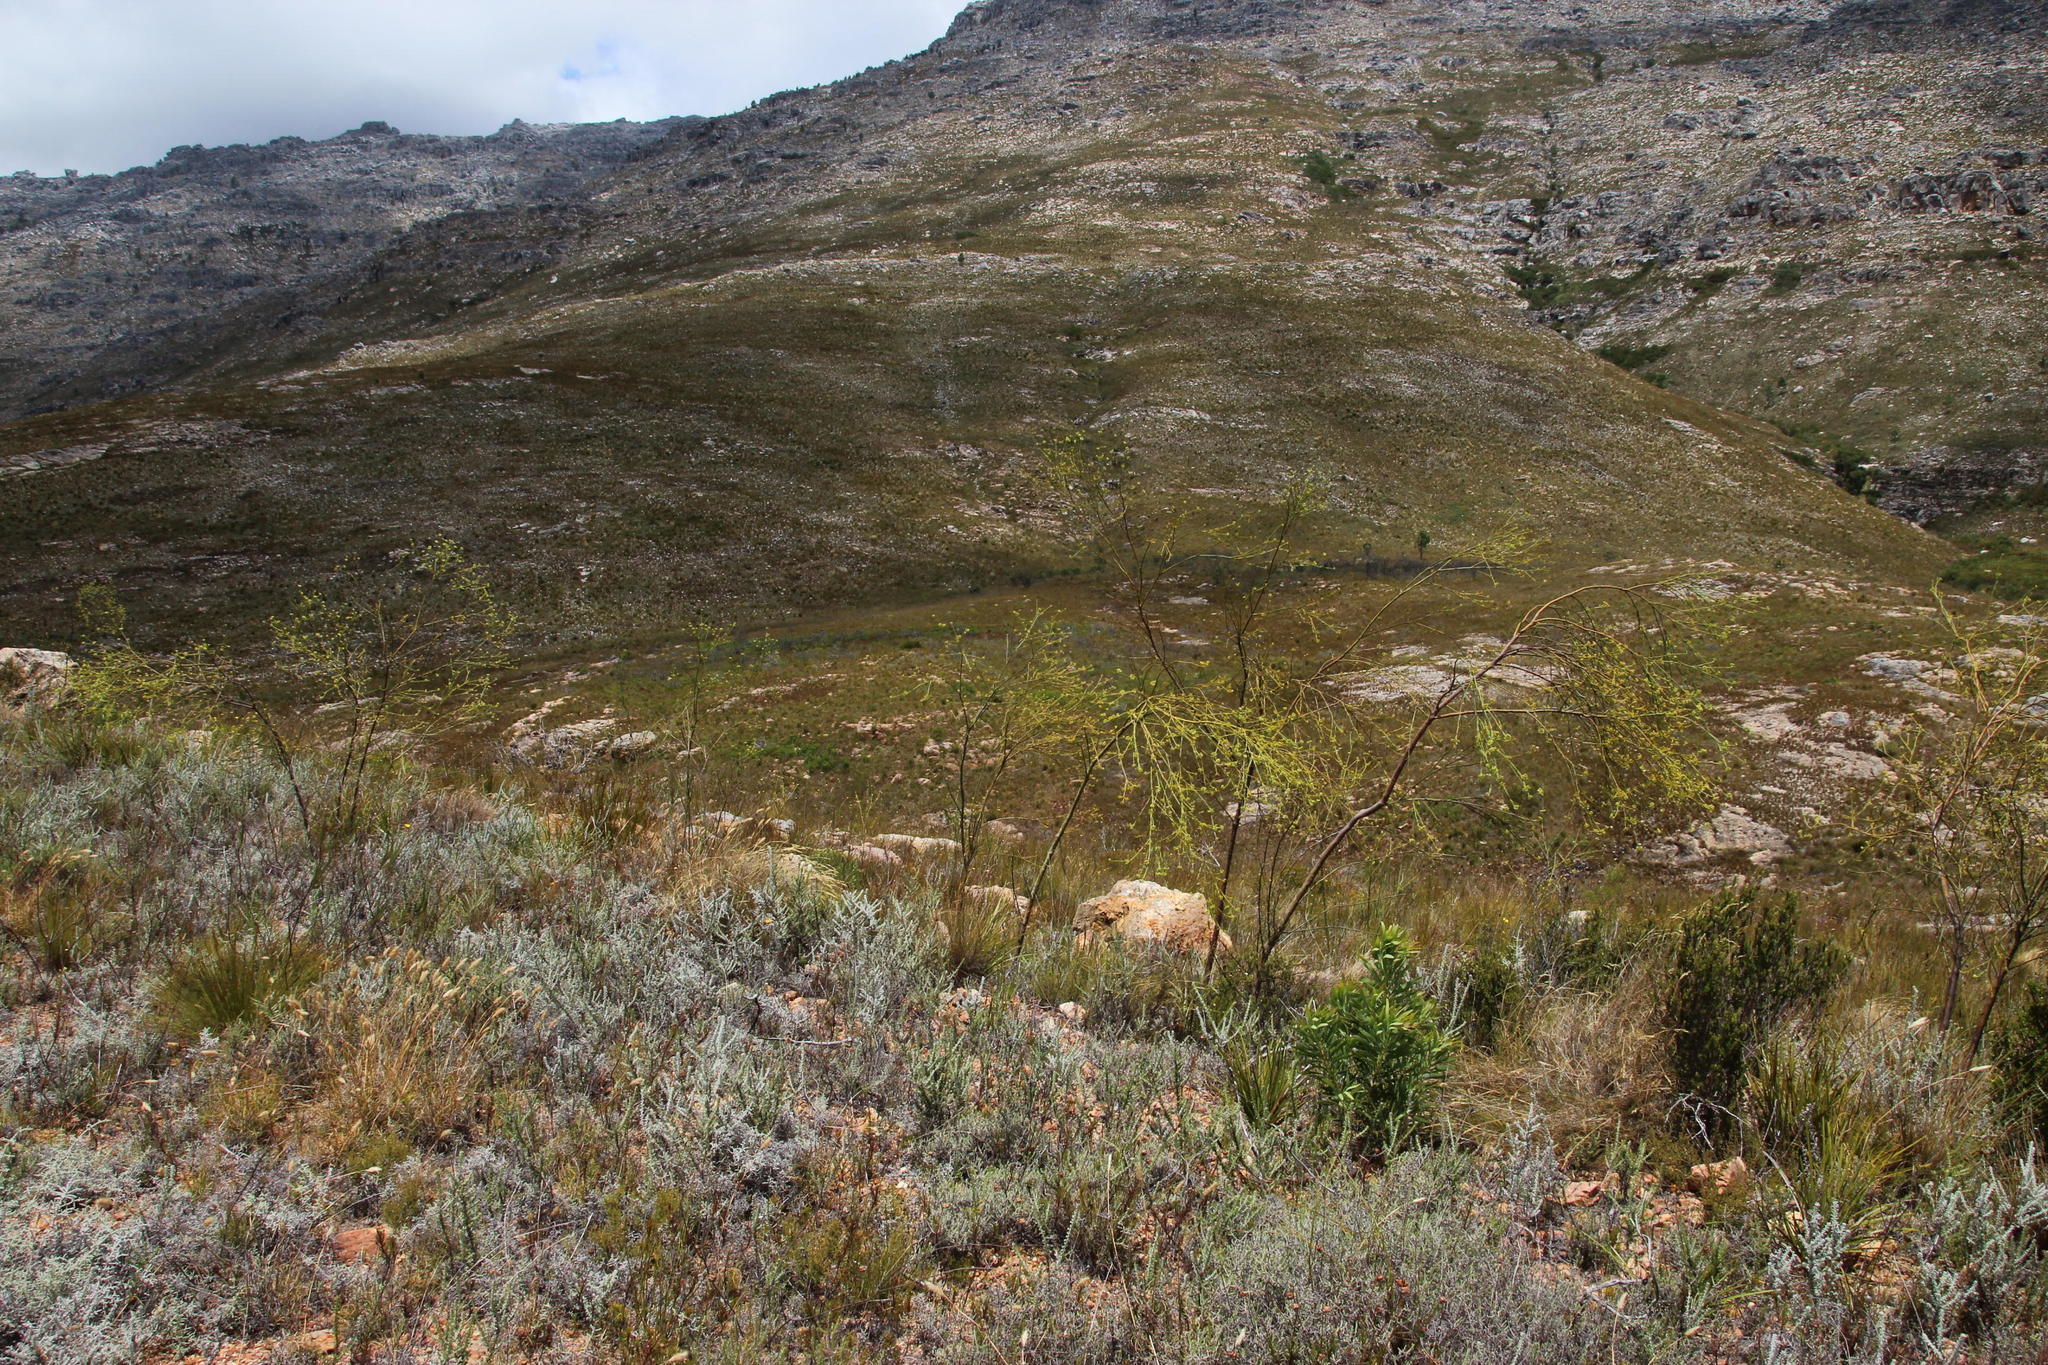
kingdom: Plantae
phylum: Tracheophyta
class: Magnoliopsida
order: Santalales
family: Thesiaceae
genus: Thesium
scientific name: Thesium strictum
